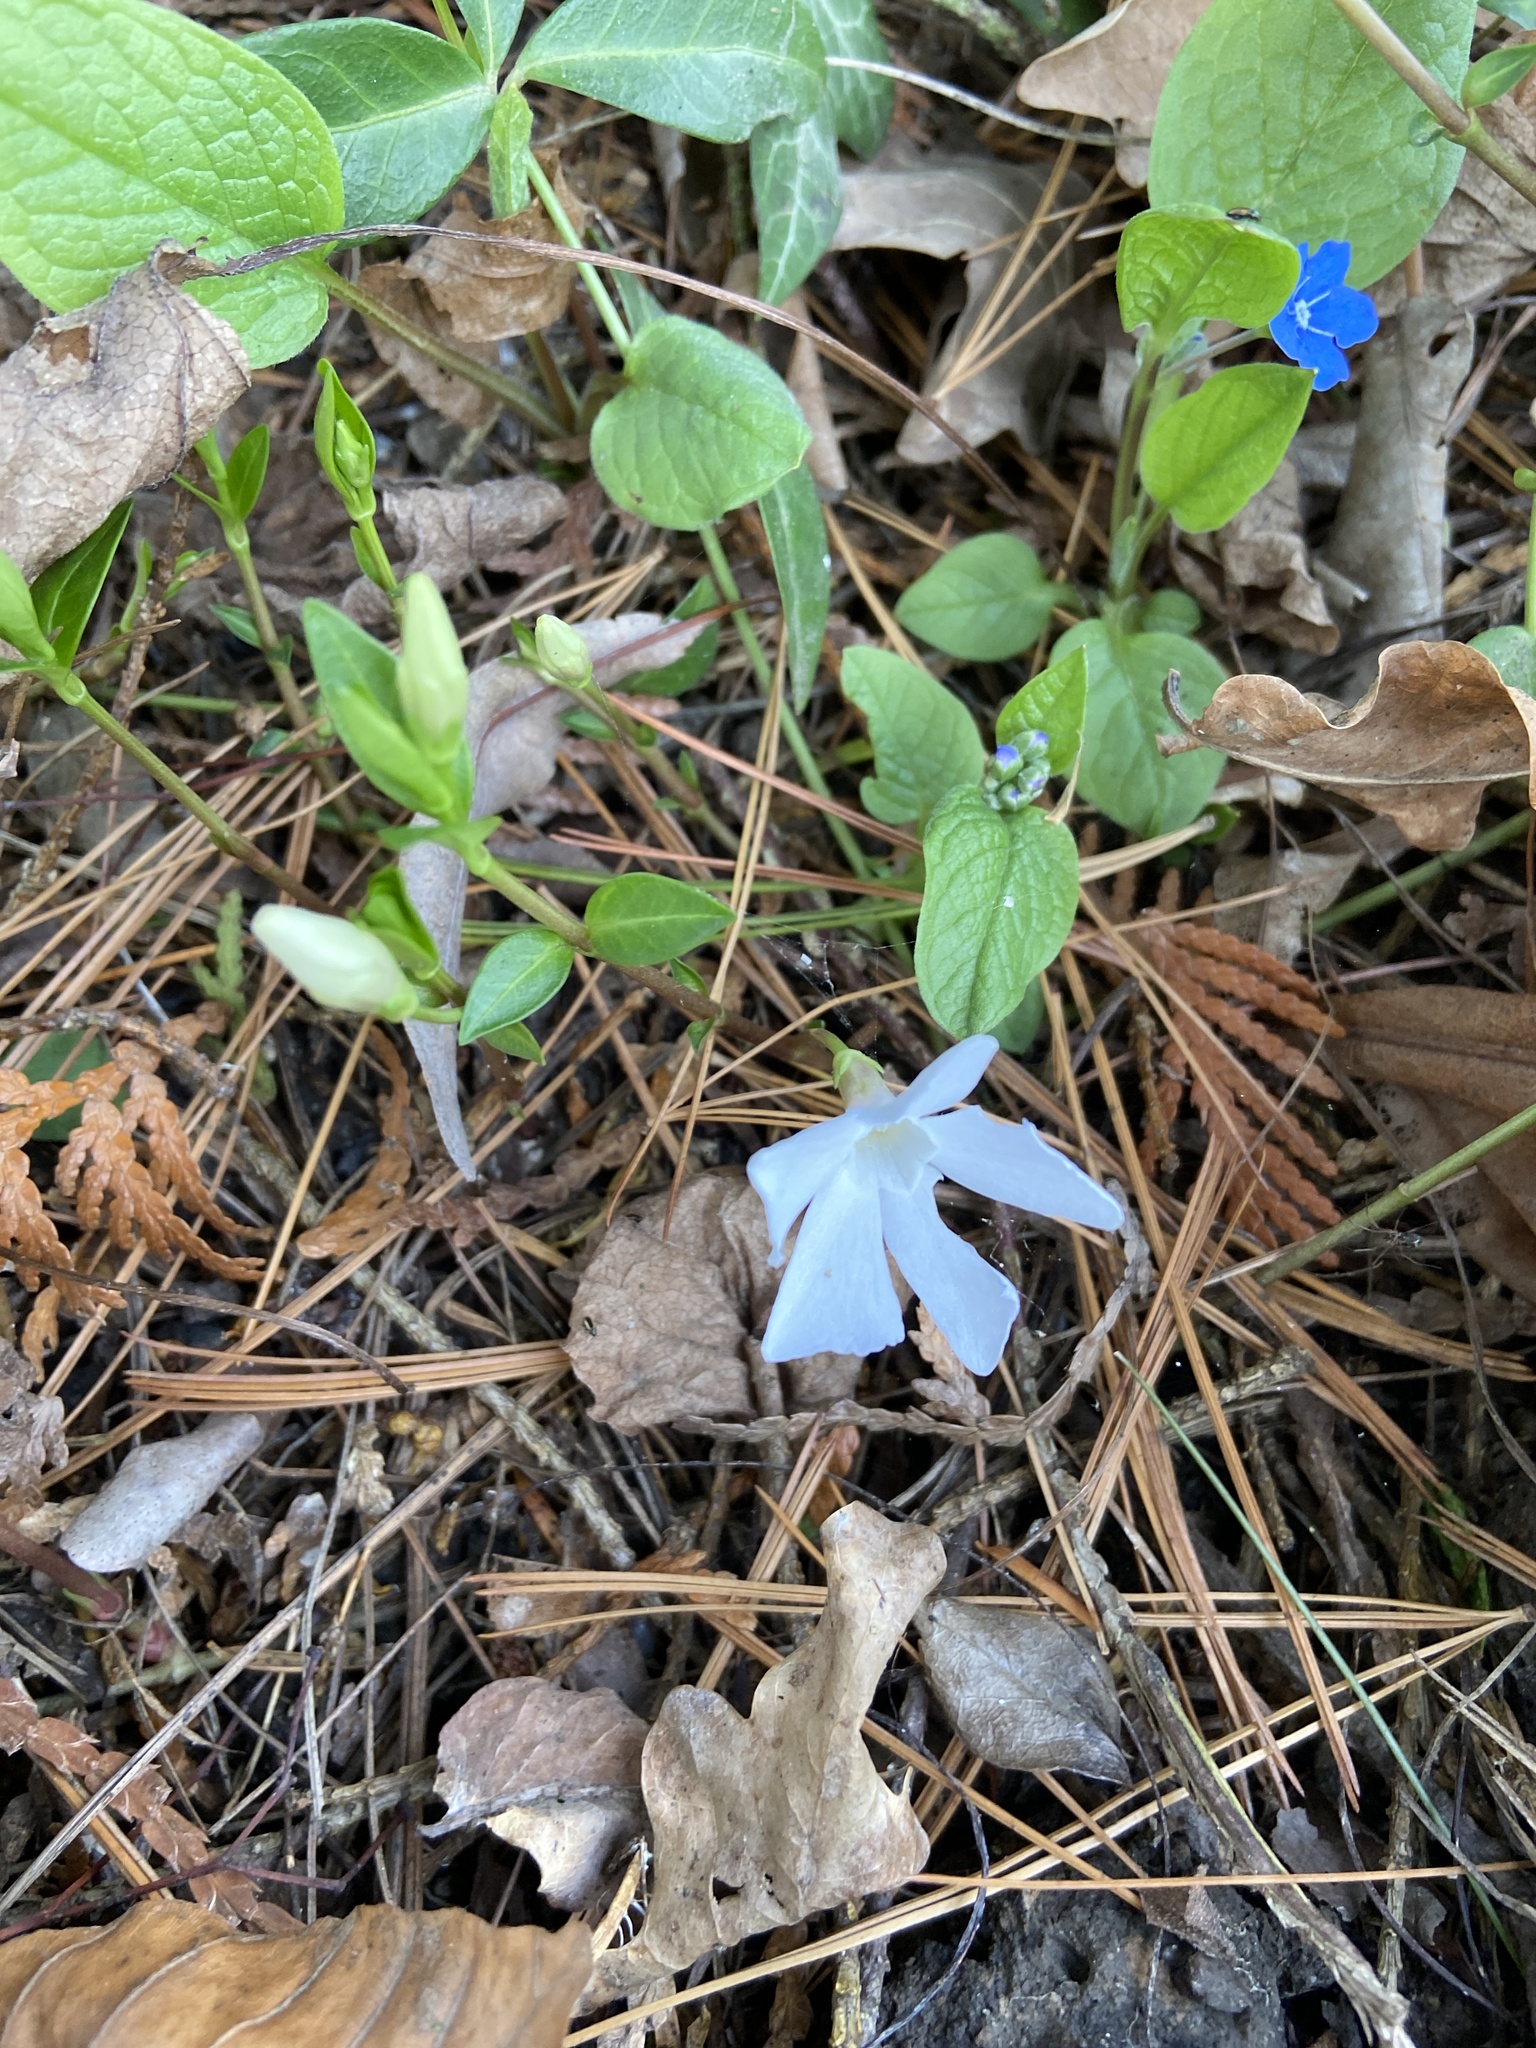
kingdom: Plantae
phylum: Tracheophyta
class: Magnoliopsida
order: Gentianales
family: Apocynaceae
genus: Vinca
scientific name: Vinca minor
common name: Lesser periwinkle
